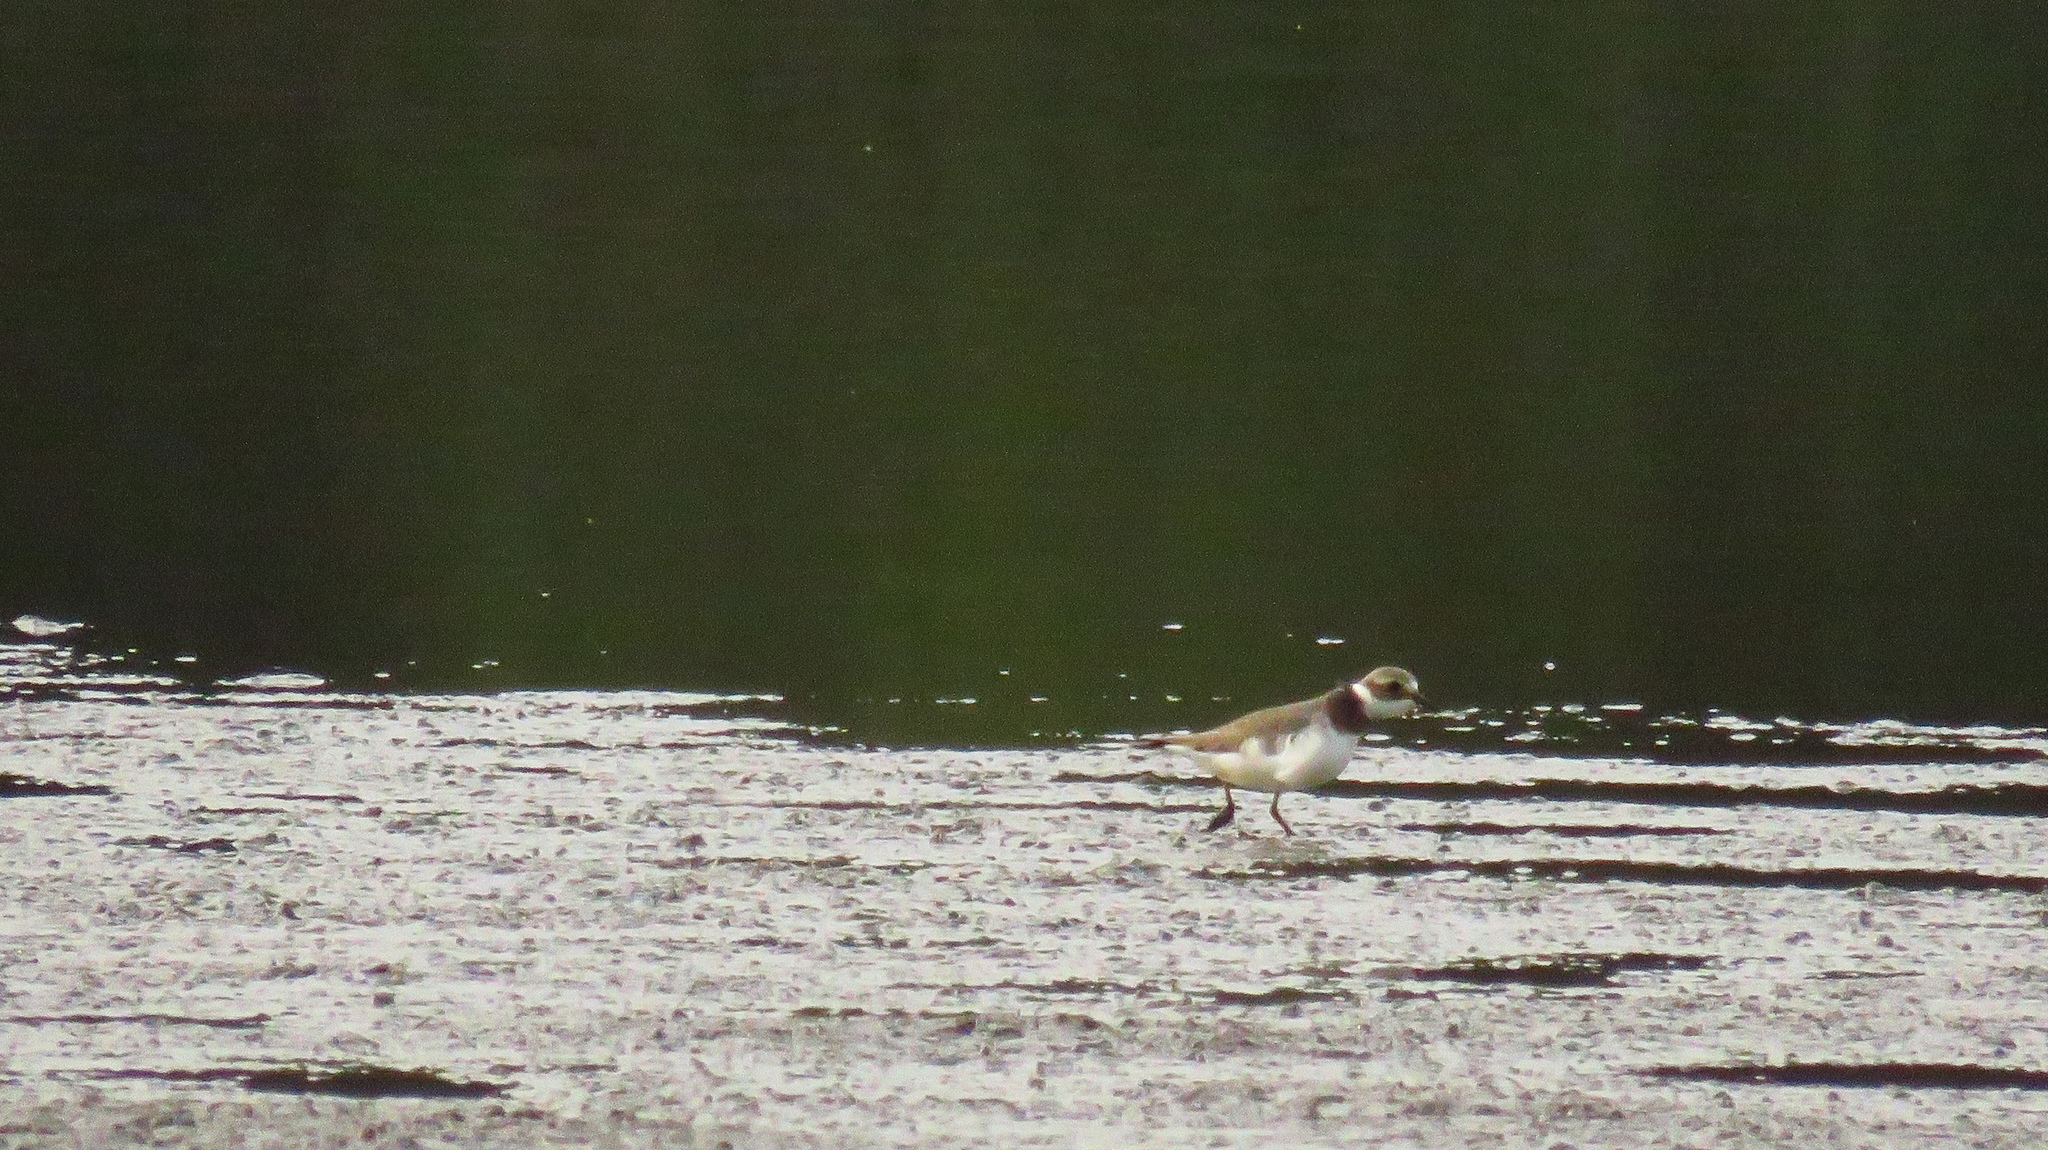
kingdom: Animalia
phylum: Chordata
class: Aves
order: Charadriiformes
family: Charadriidae
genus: Charadrius
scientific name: Charadrius hiaticula
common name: Common ringed plover
